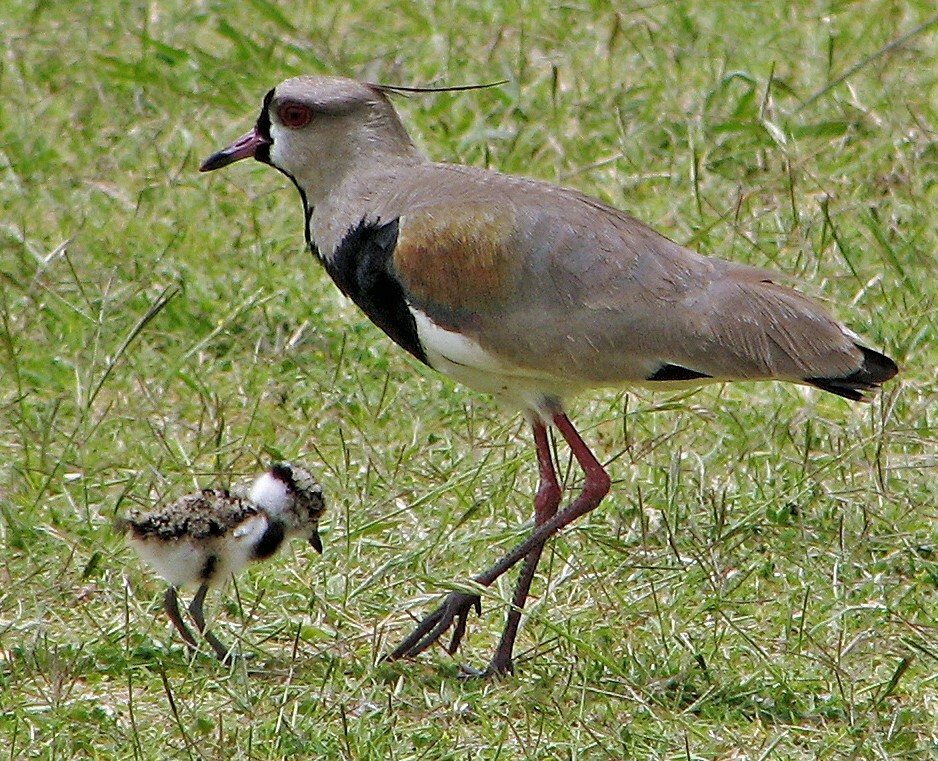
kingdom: Animalia
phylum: Chordata
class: Aves
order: Charadriiformes
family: Charadriidae
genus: Vanellus
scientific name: Vanellus chilensis
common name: Southern lapwing
